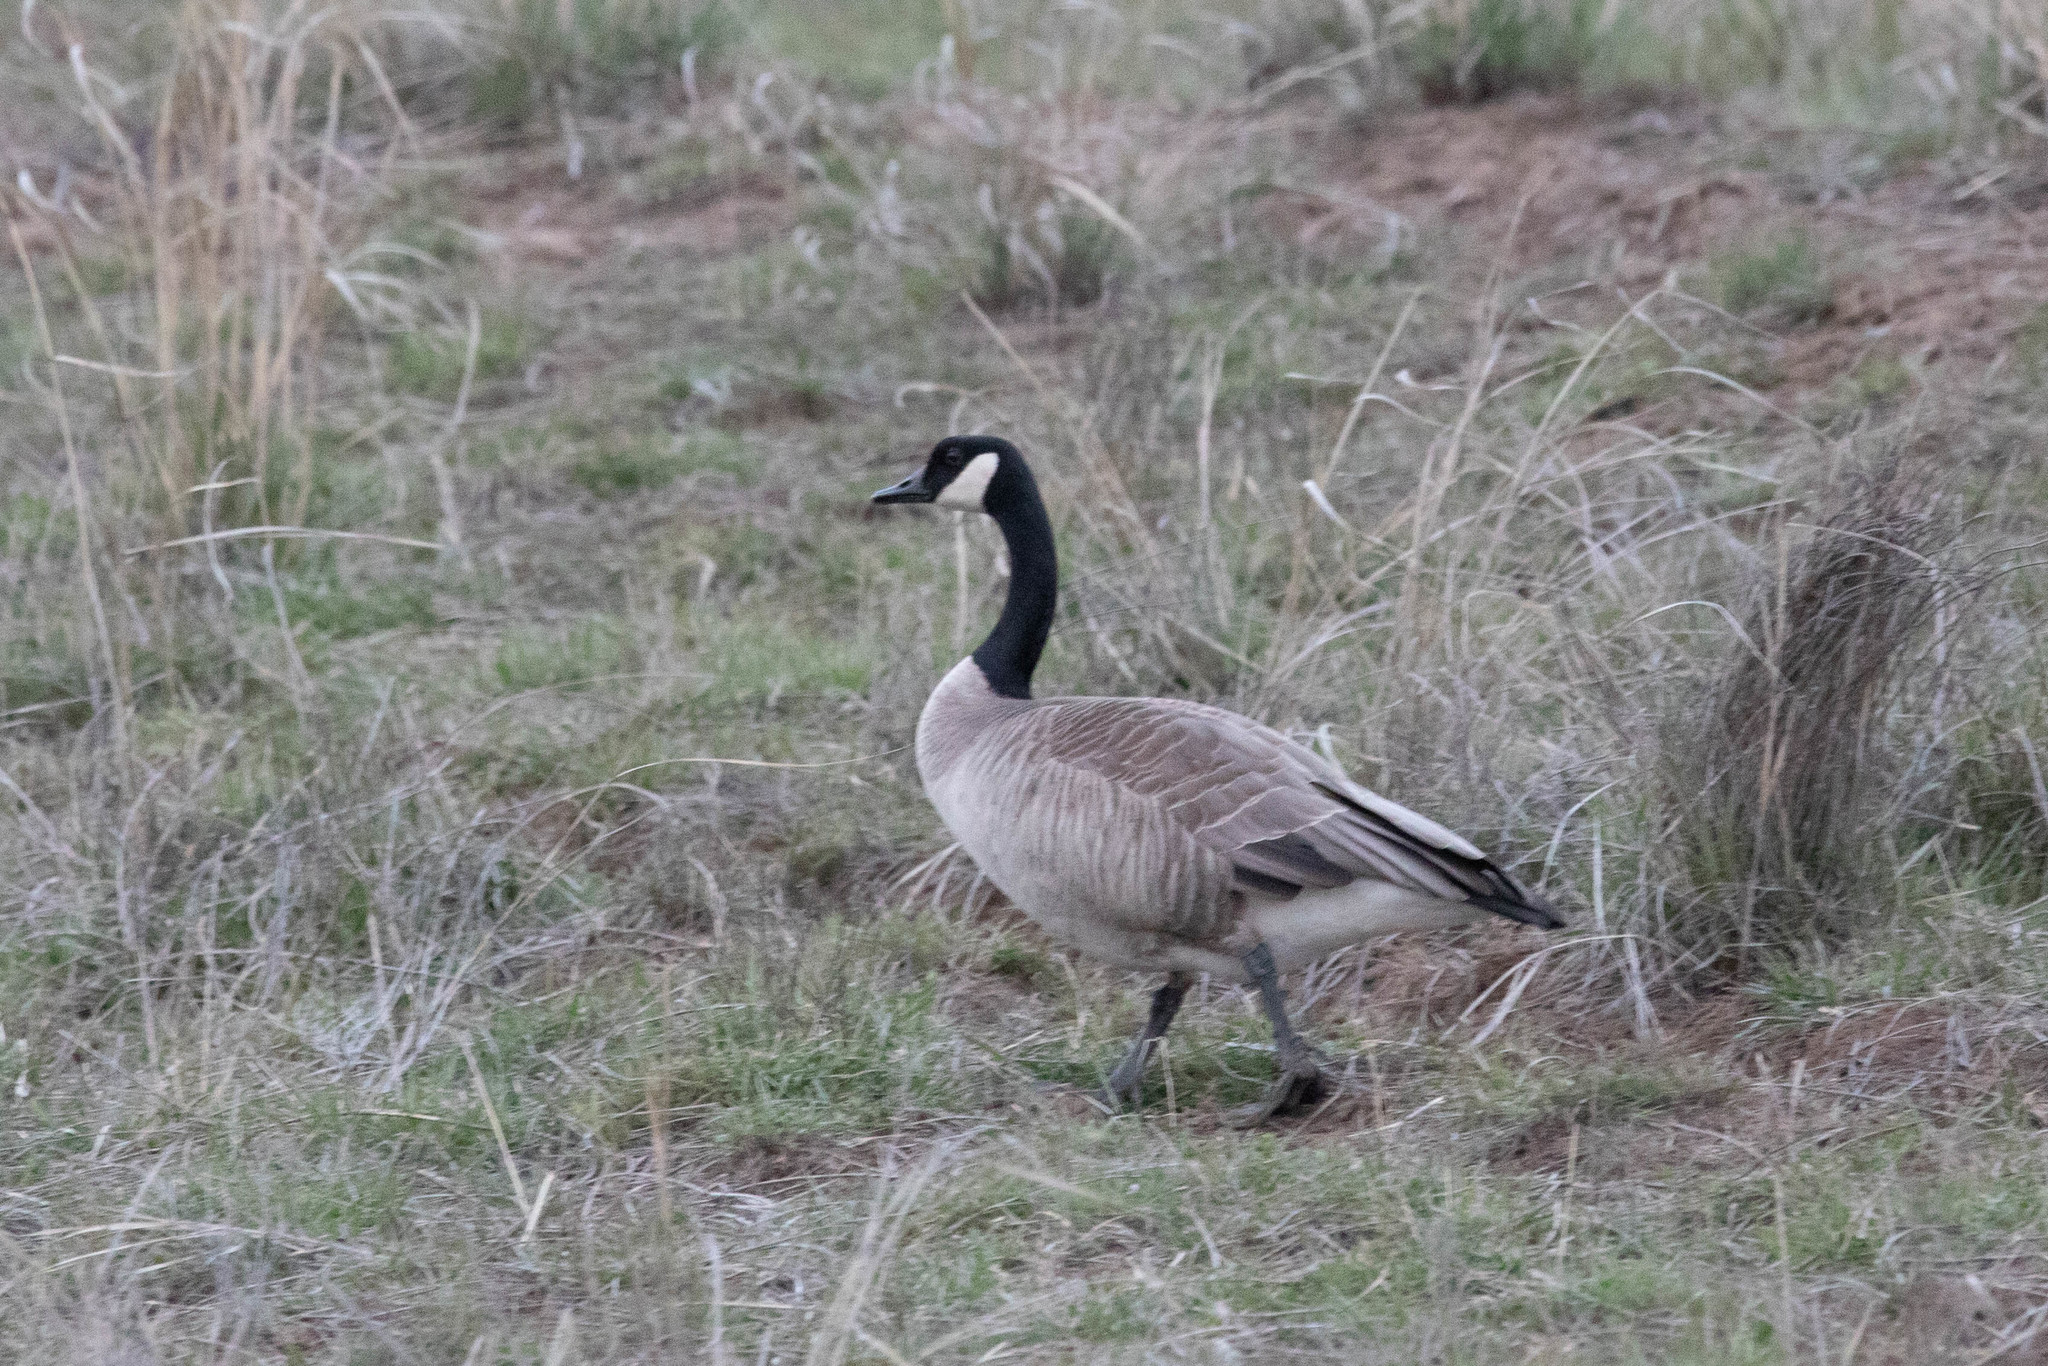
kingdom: Animalia
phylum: Chordata
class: Aves
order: Anseriformes
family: Anatidae
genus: Branta
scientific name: Branta canadensis
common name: Canada goose
